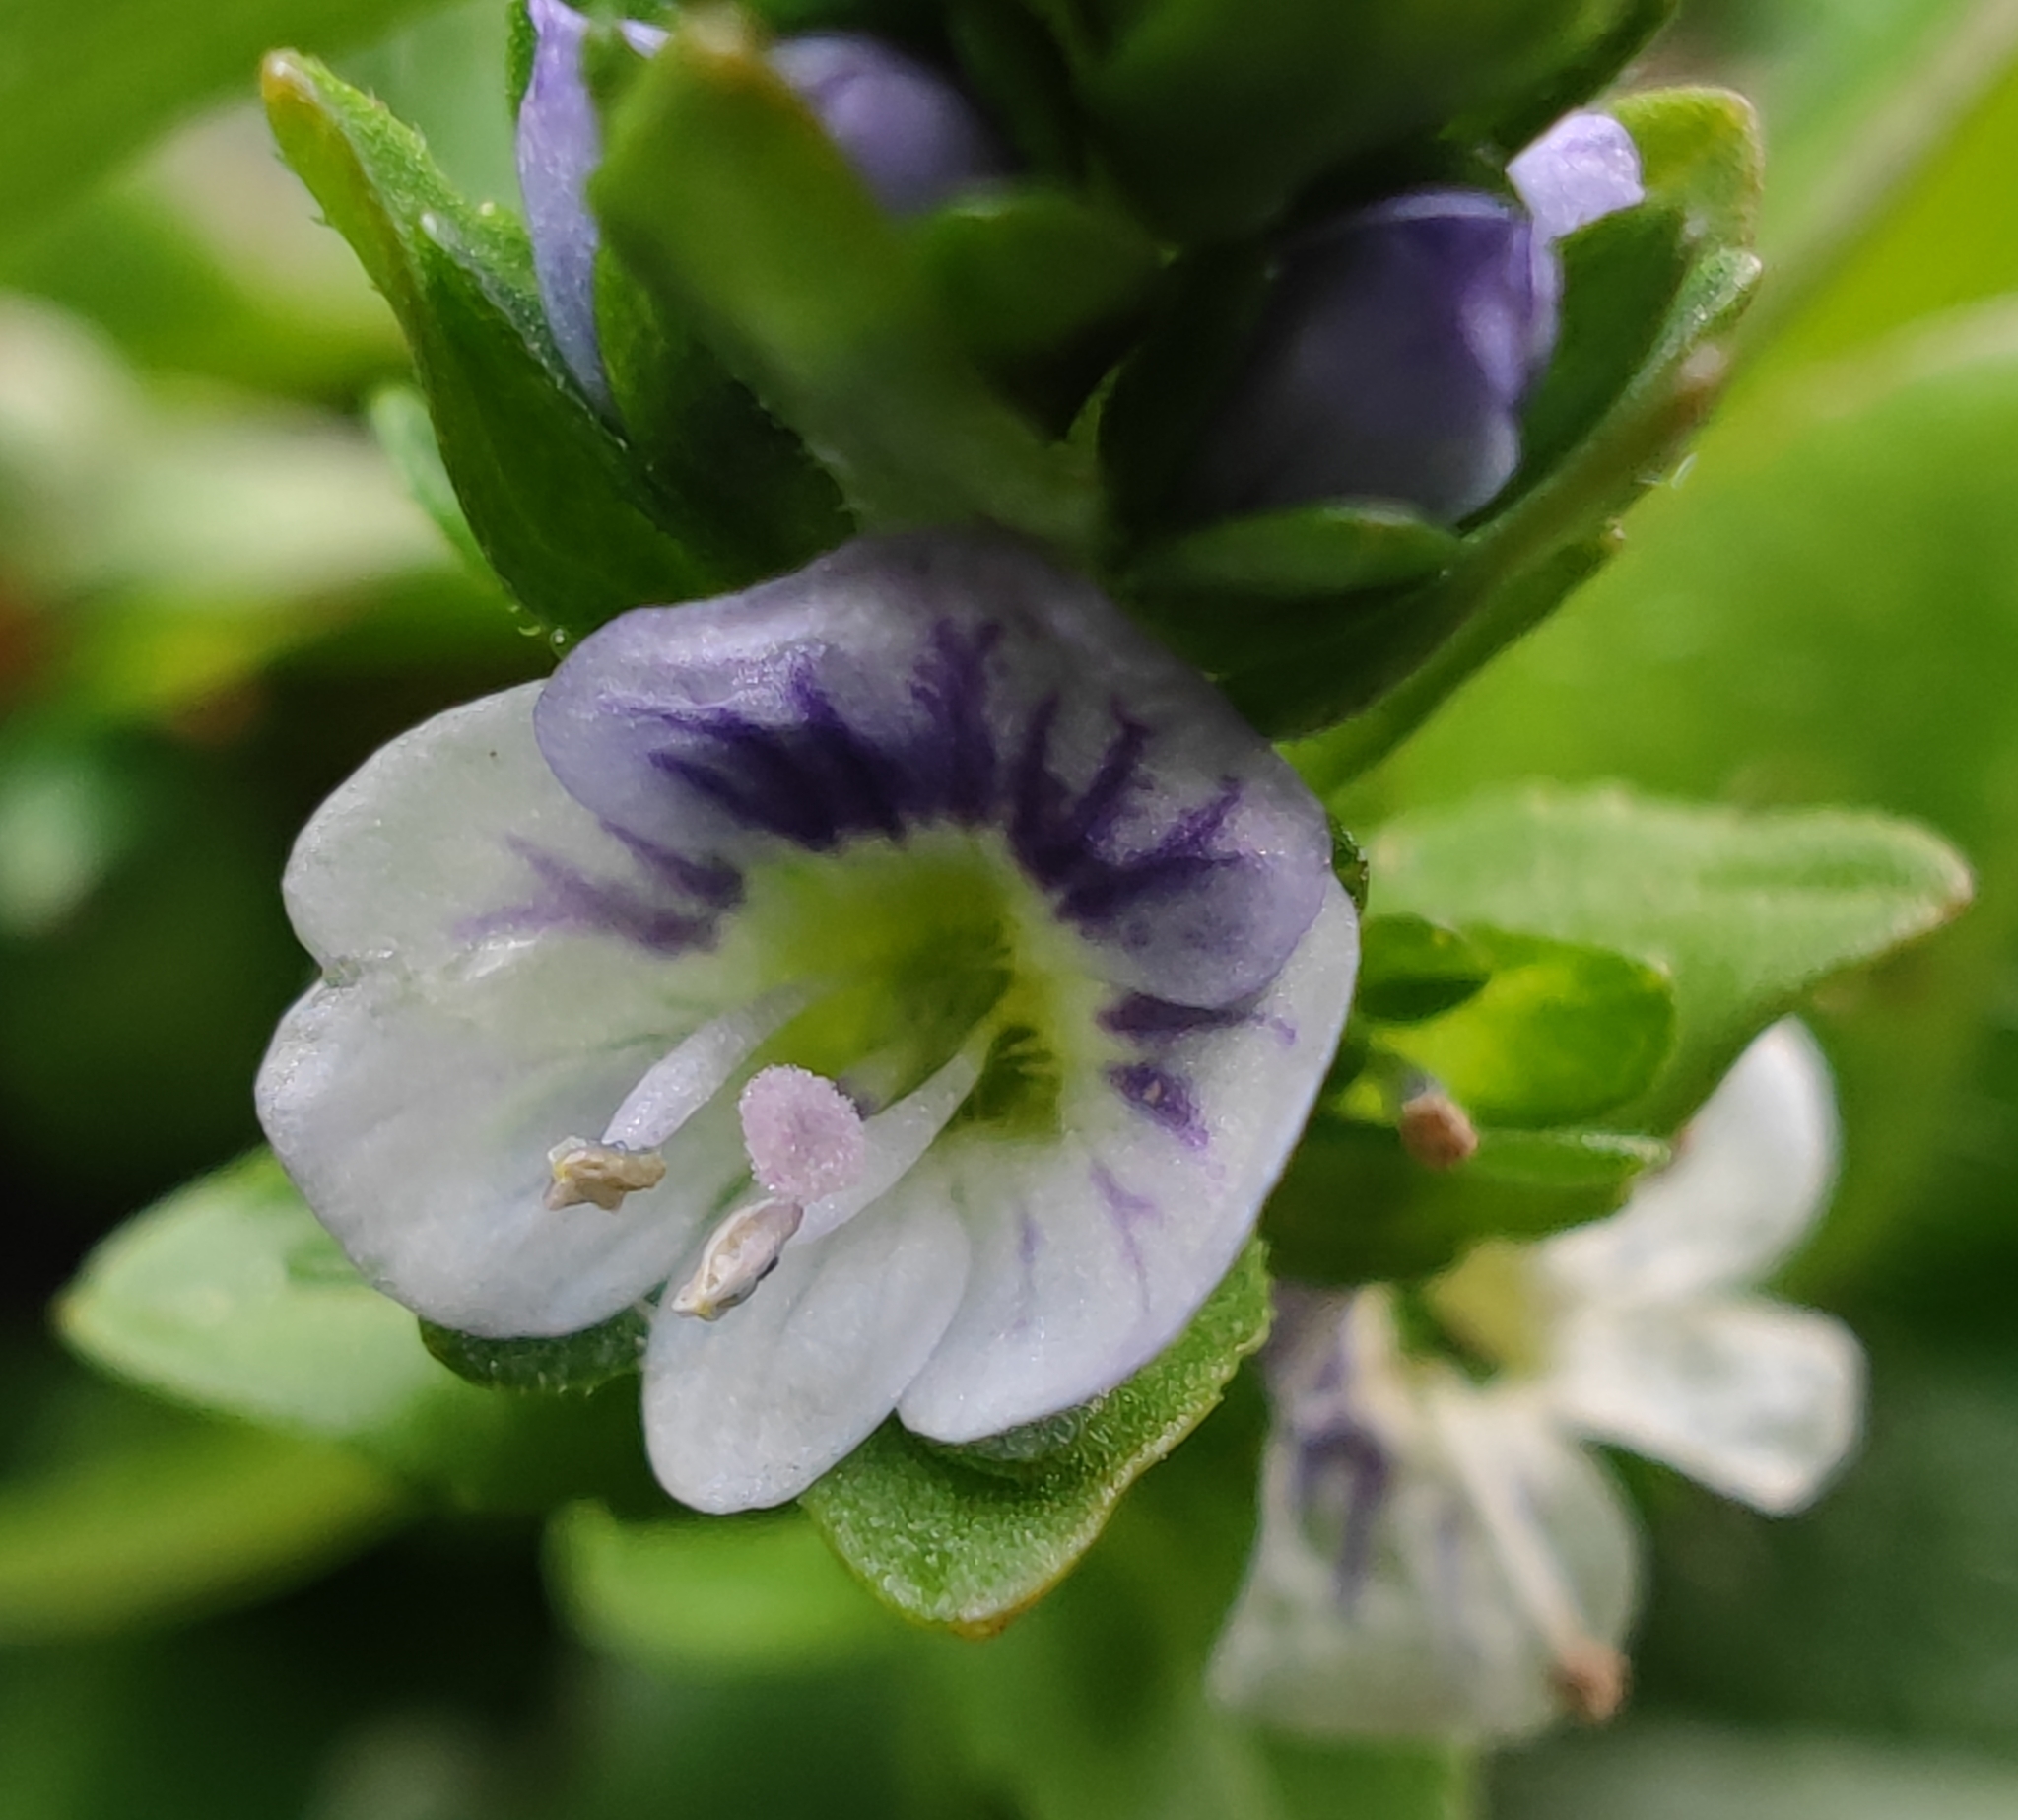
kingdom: Plantae
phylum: Tracheophyta
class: Magnoliopsida
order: Lamiales
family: Plantaginaceae
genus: Veronica
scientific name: Veronica serpyllifolia
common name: Thyme-leaved speedwell
